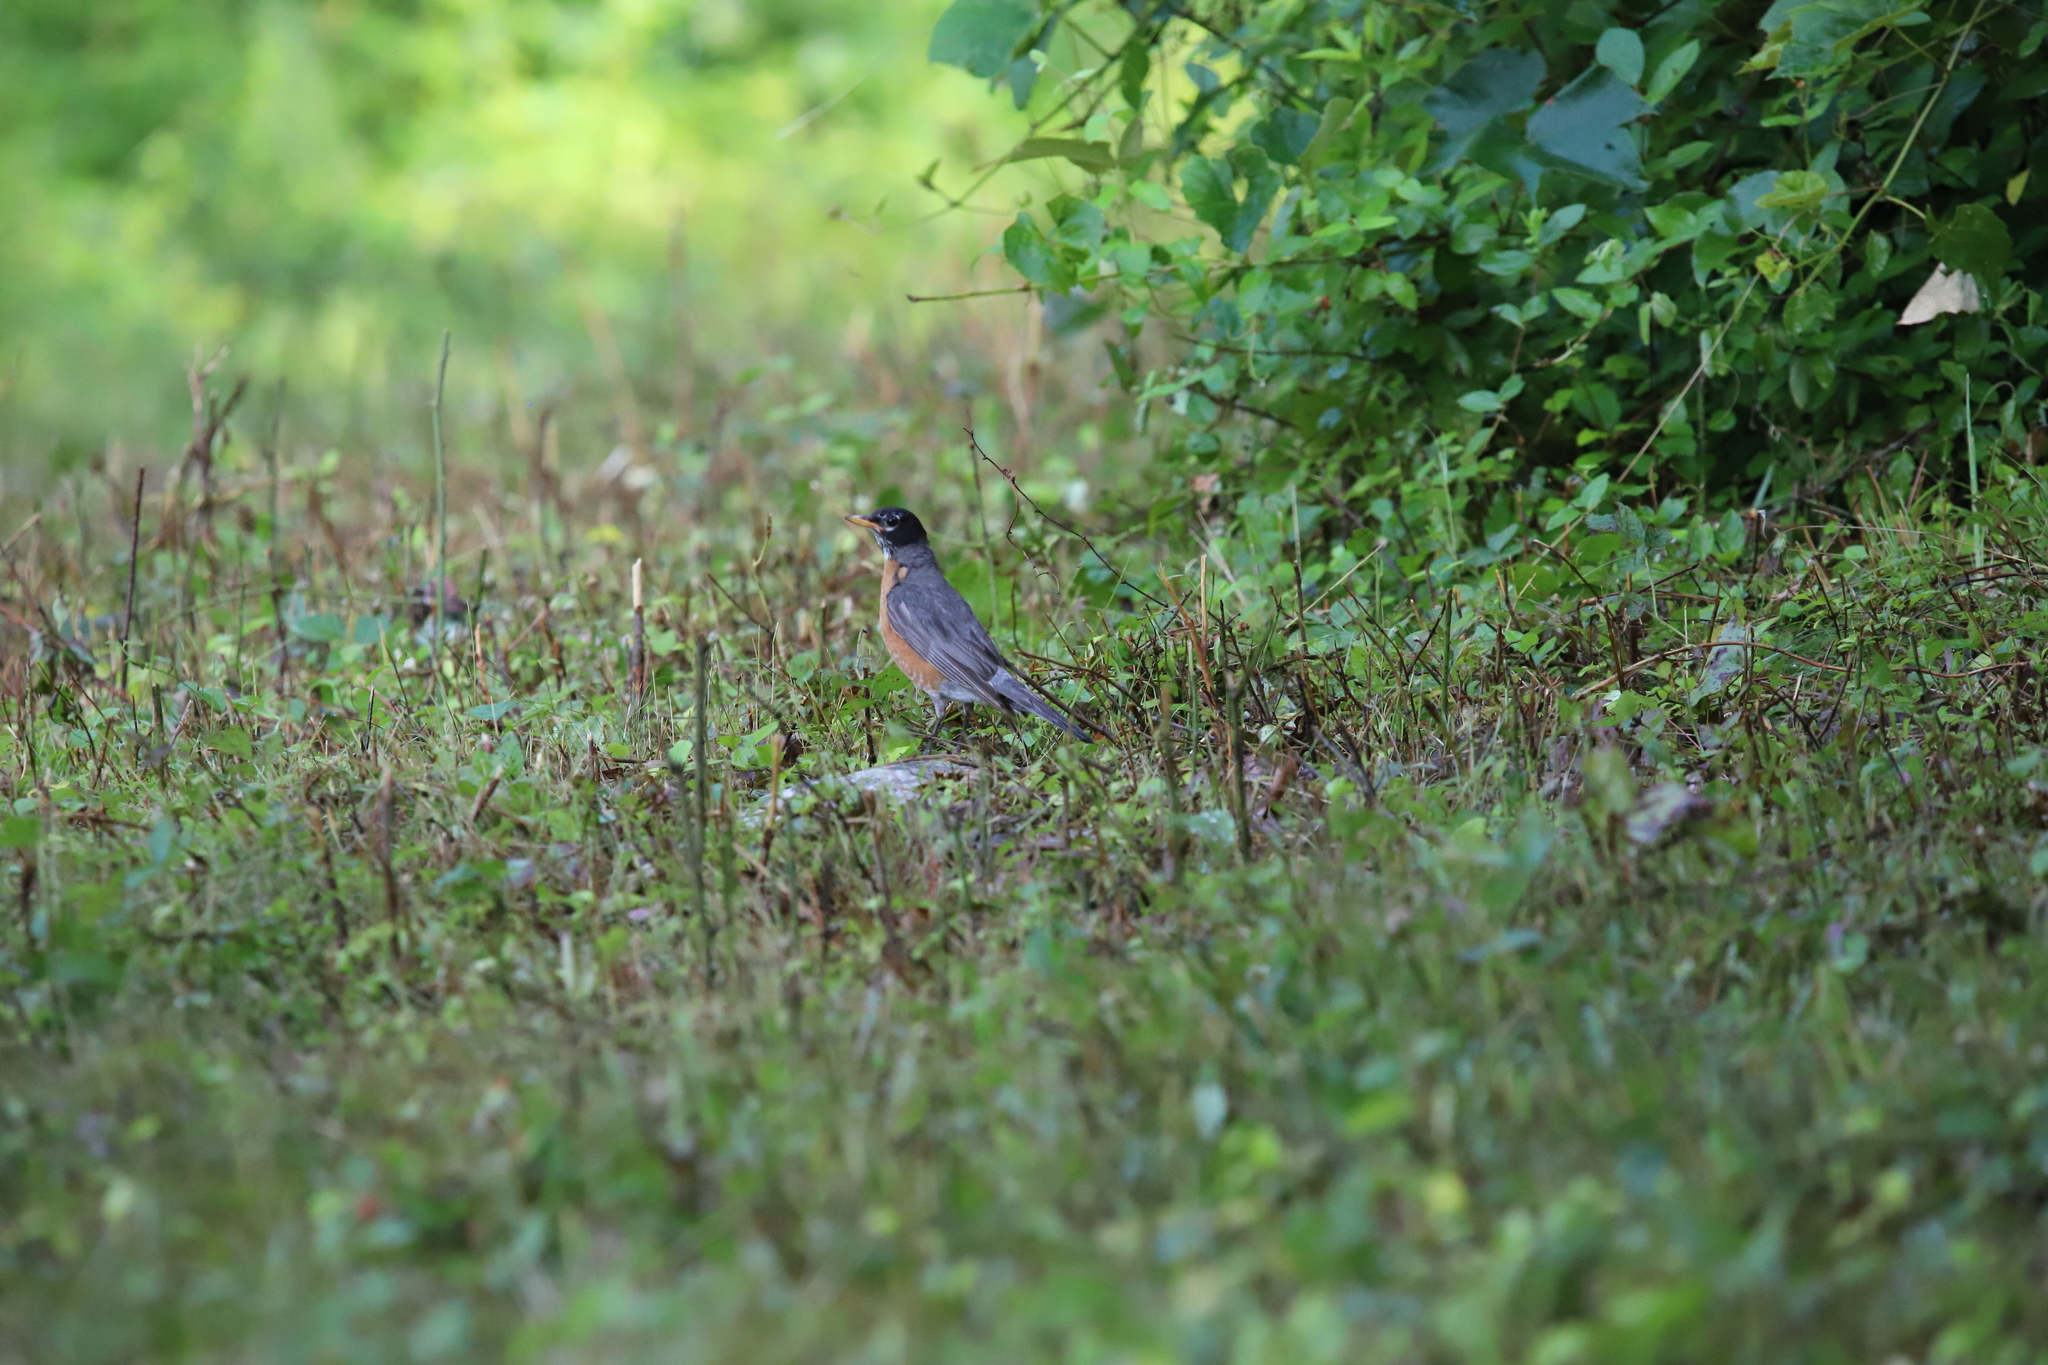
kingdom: Animalia
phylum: Chordata
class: Aves
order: Passeriformes
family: Turdidae
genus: Turdus
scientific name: Turdus migratorius
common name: American robin
